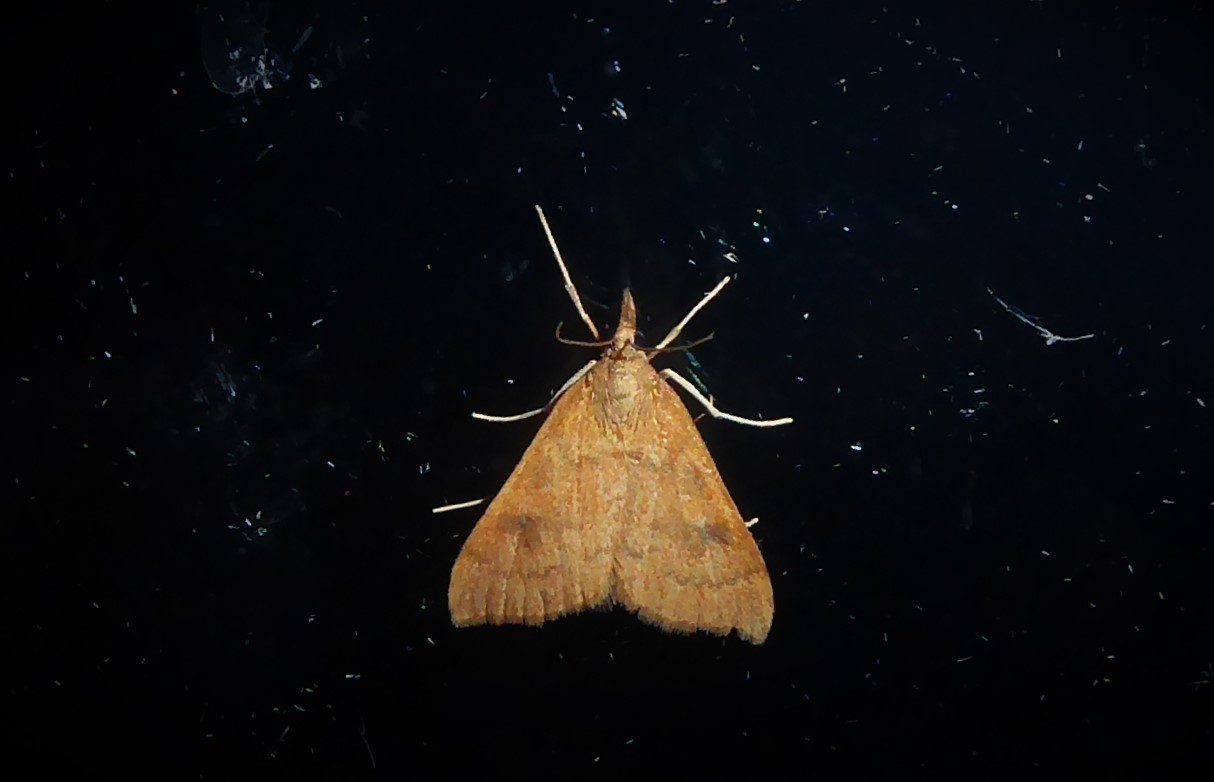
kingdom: Animalia
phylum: Arthropoda
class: Insecta
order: Lepidoptera
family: Crambidae
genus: Udea
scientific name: Udea Mnesictena flavidalis
